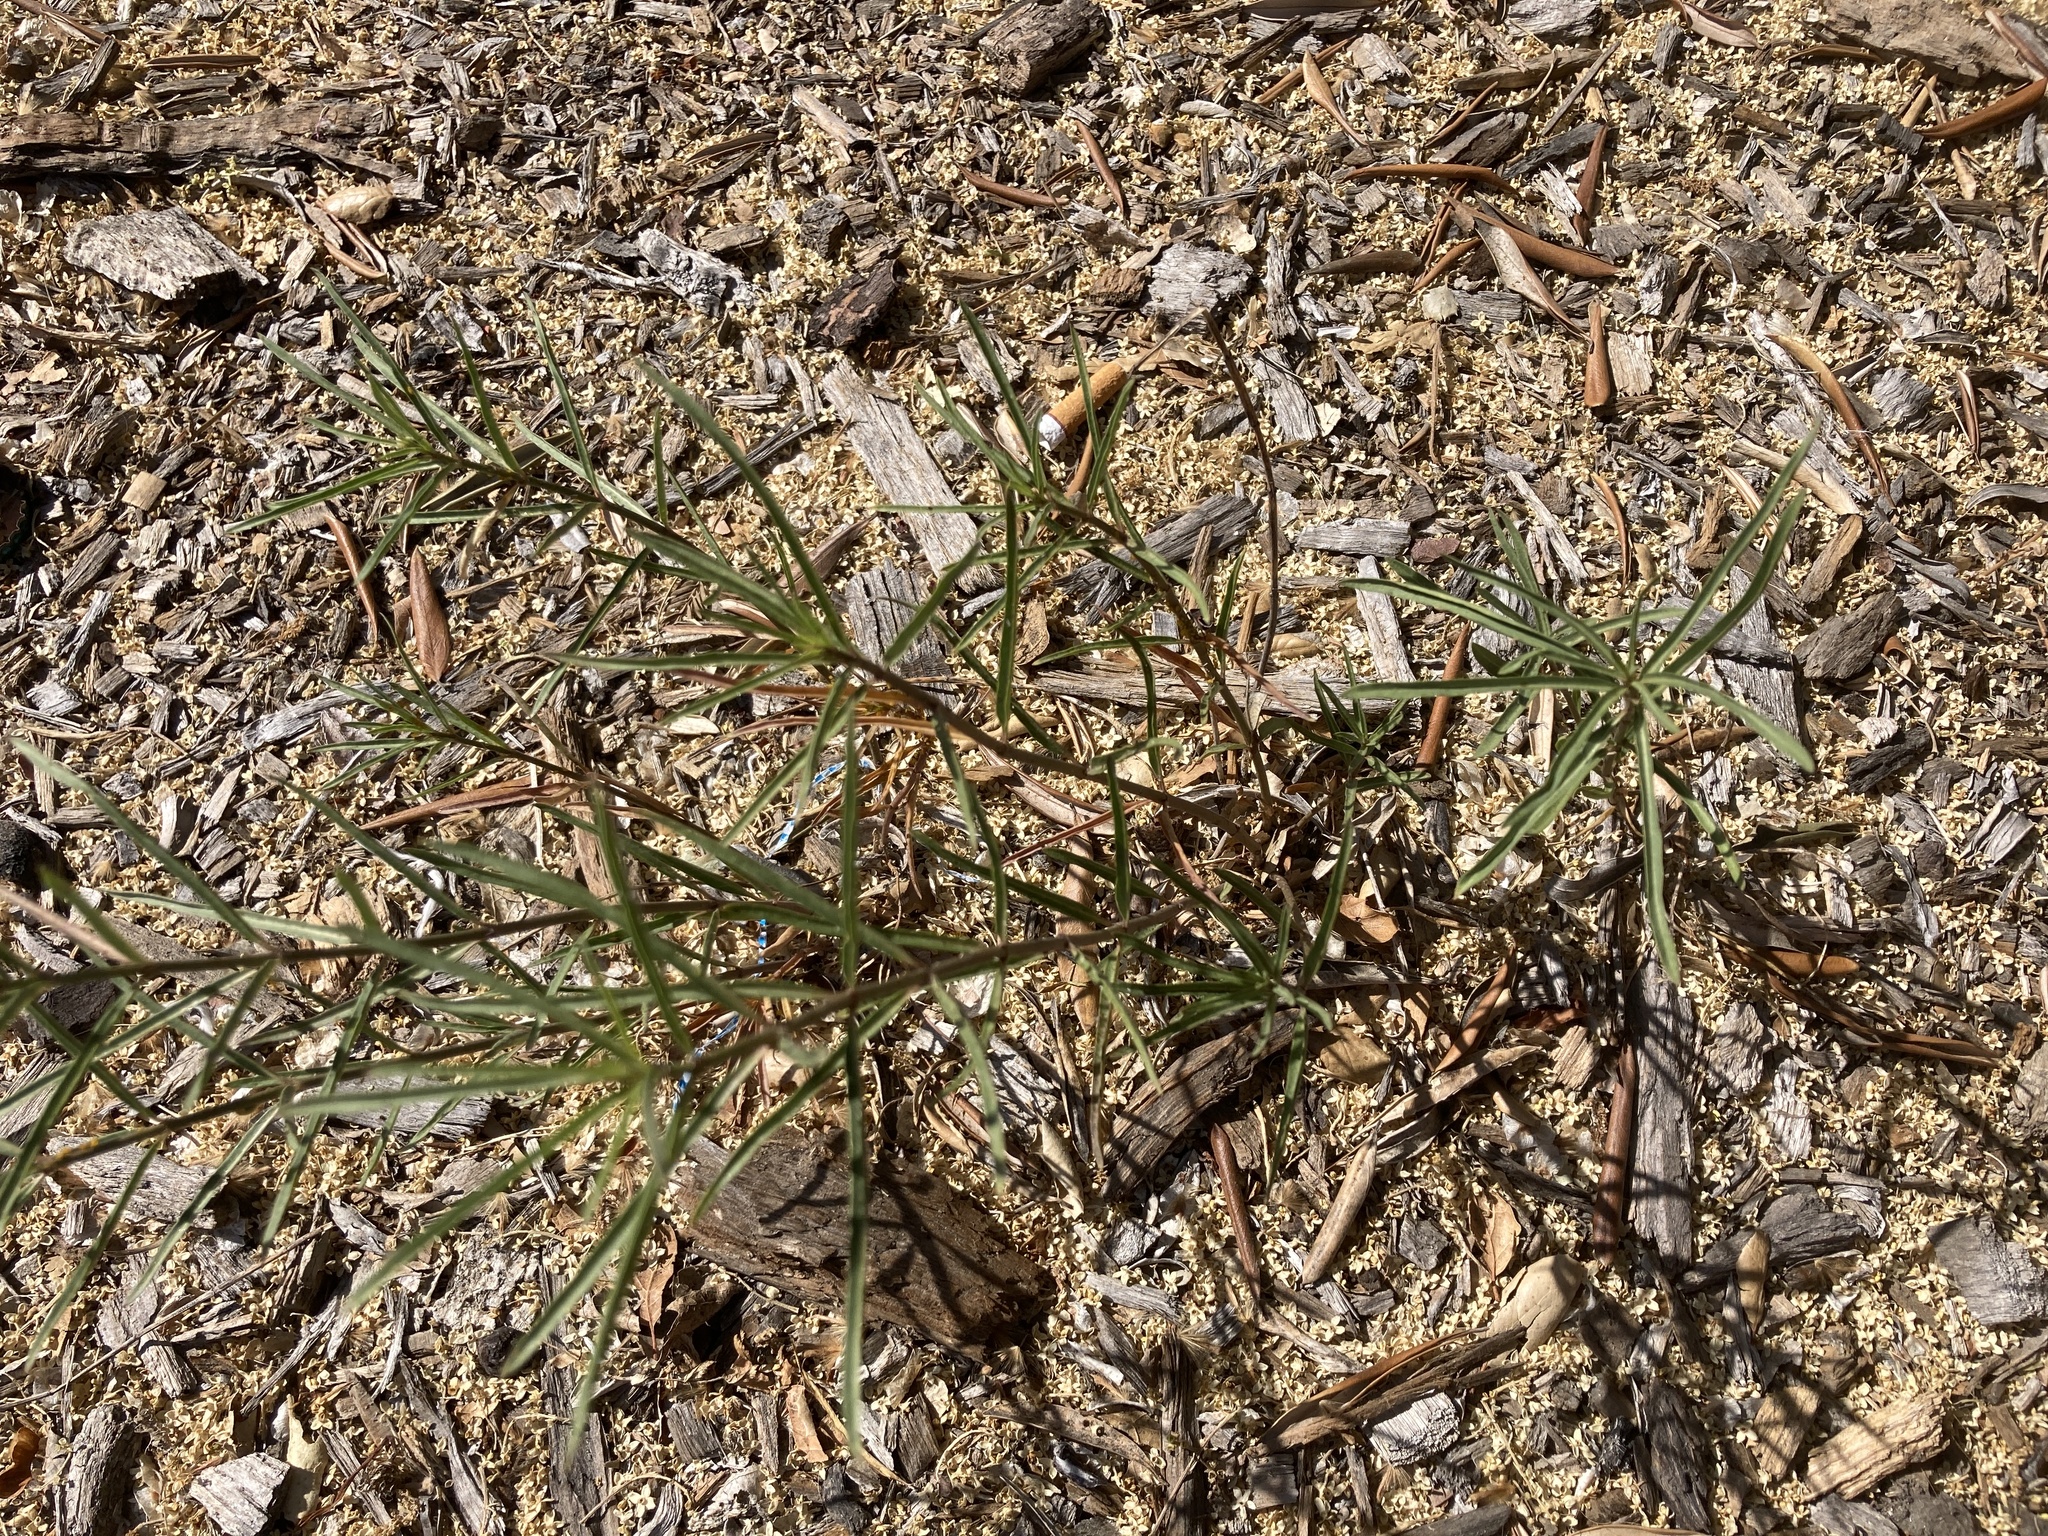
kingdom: Plantae
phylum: Tracheophyta
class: Magnoliopsida
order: Gentianales
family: Apocynaceae
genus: Asclepias
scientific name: Asclepias fascicularis
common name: Mexican milkweed
